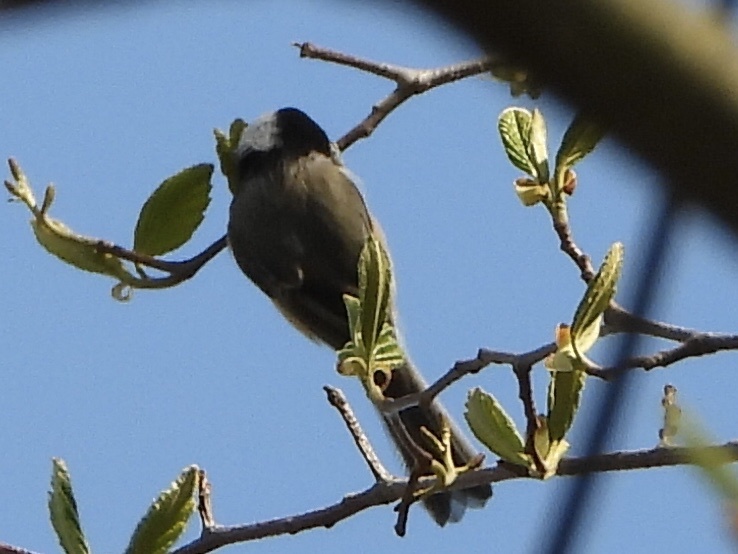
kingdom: Animalia
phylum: Chordata
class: Aves
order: Passeriformes
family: Paridae
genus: Poecile
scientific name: Poecile atricapillus
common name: Black-capped chickadee
